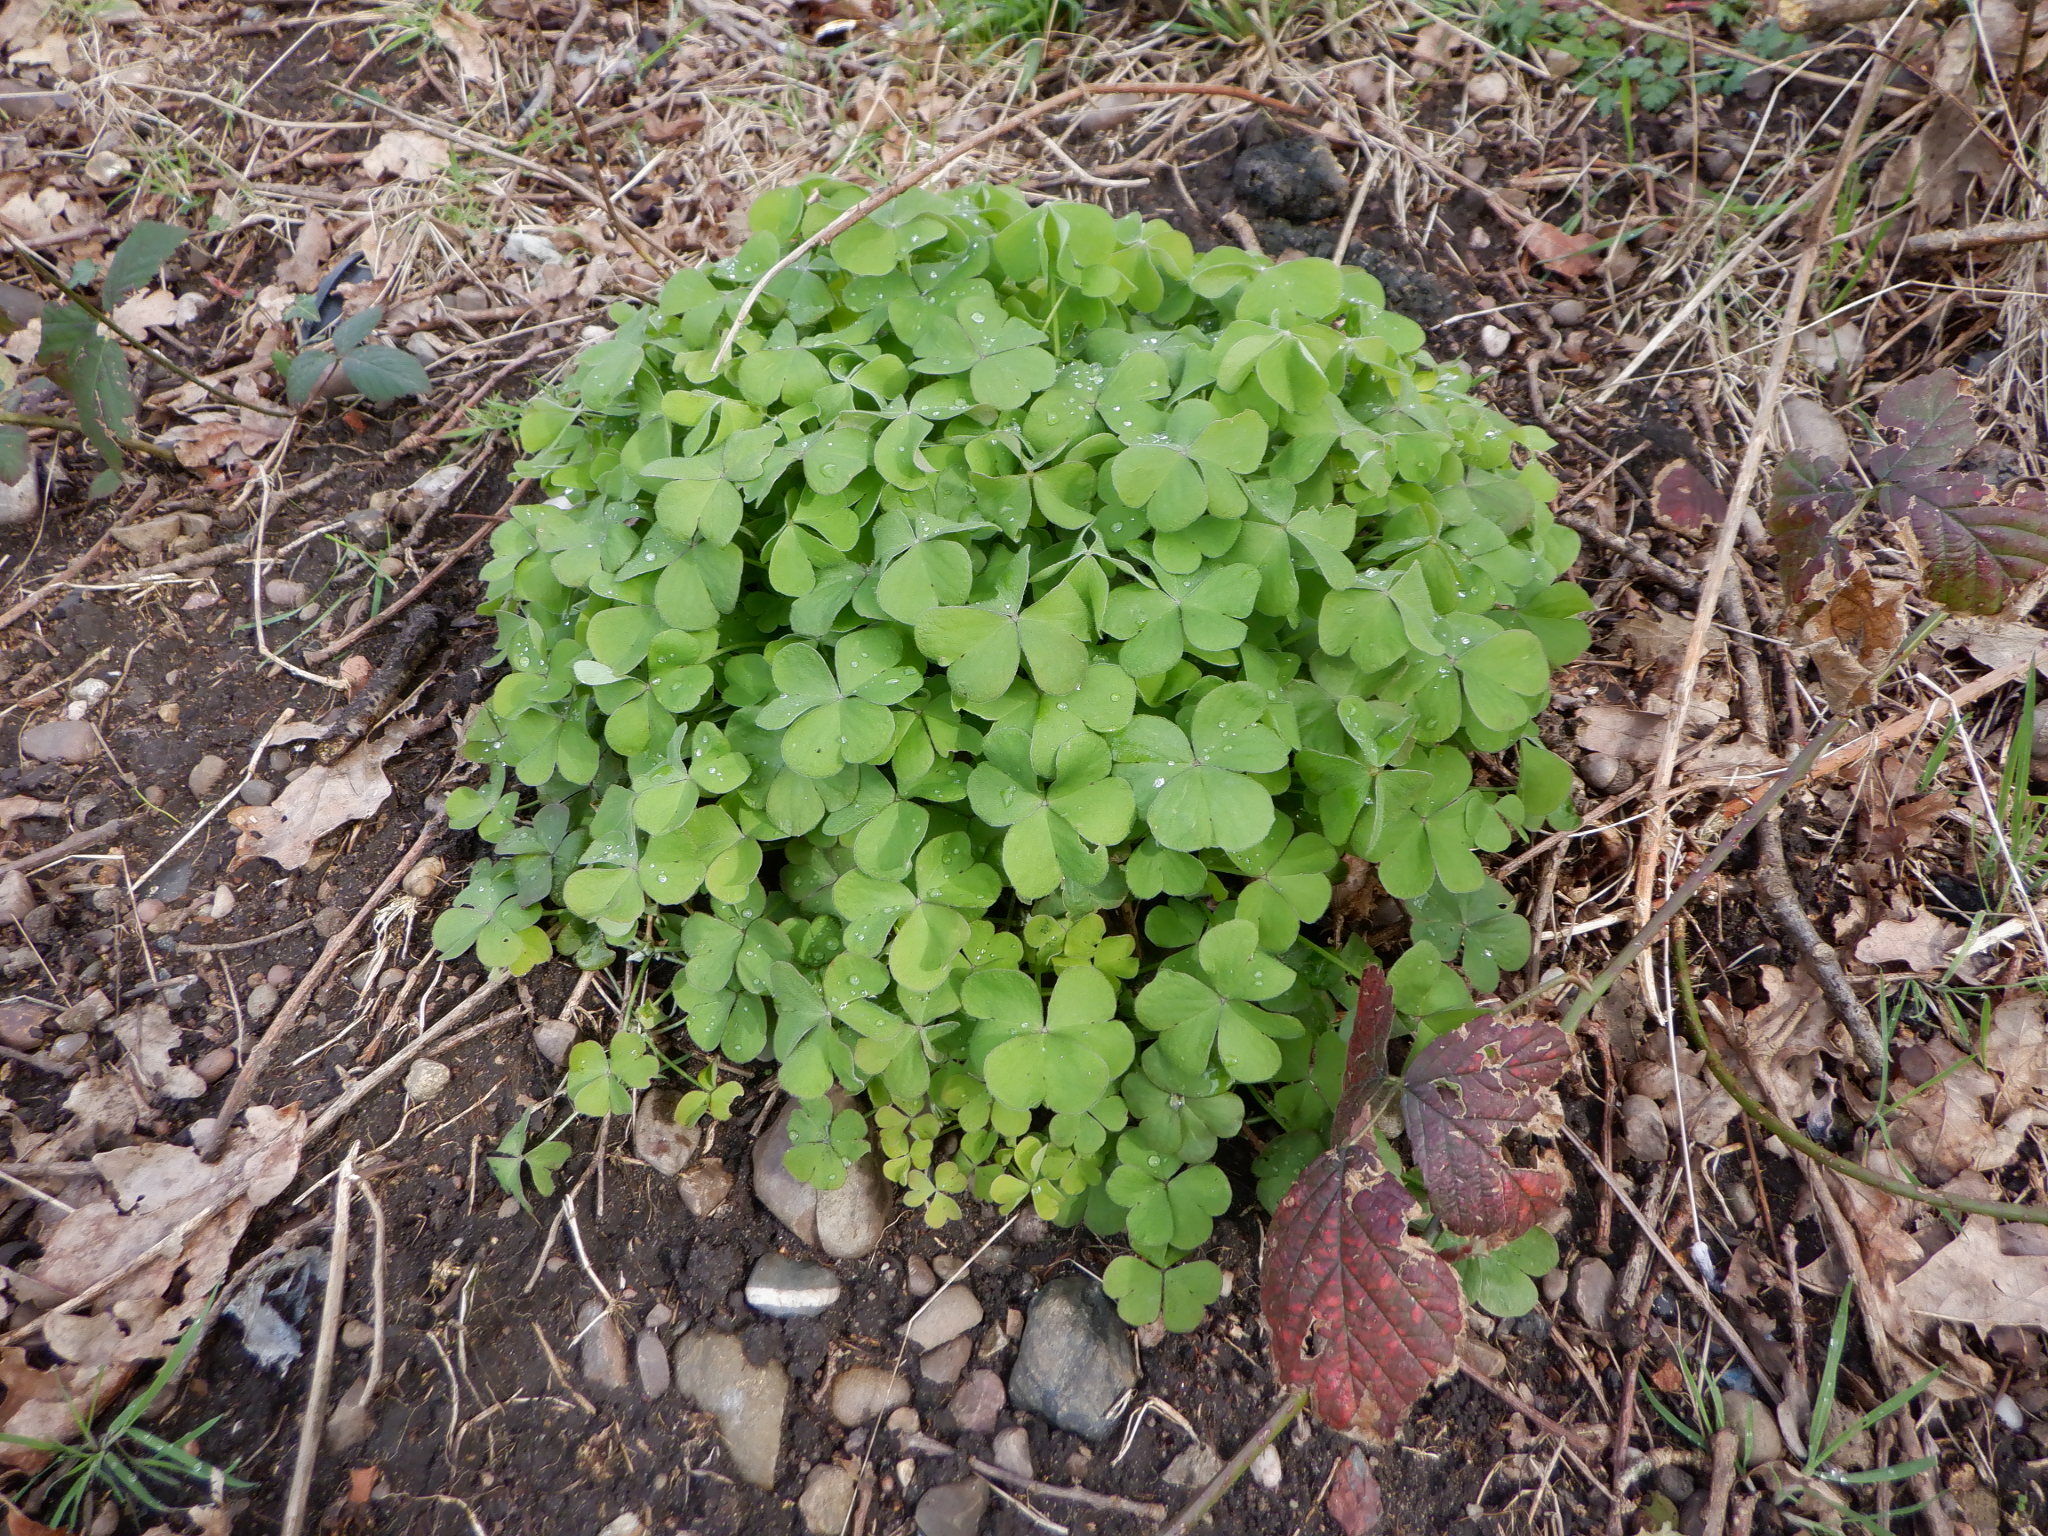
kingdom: Plantae
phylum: Tracheophyta
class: Magnoliopsida
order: Oxalidales
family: Oxalidaceae
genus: Oxalis
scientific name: Oxalis articulata
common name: Pink-sorrel
